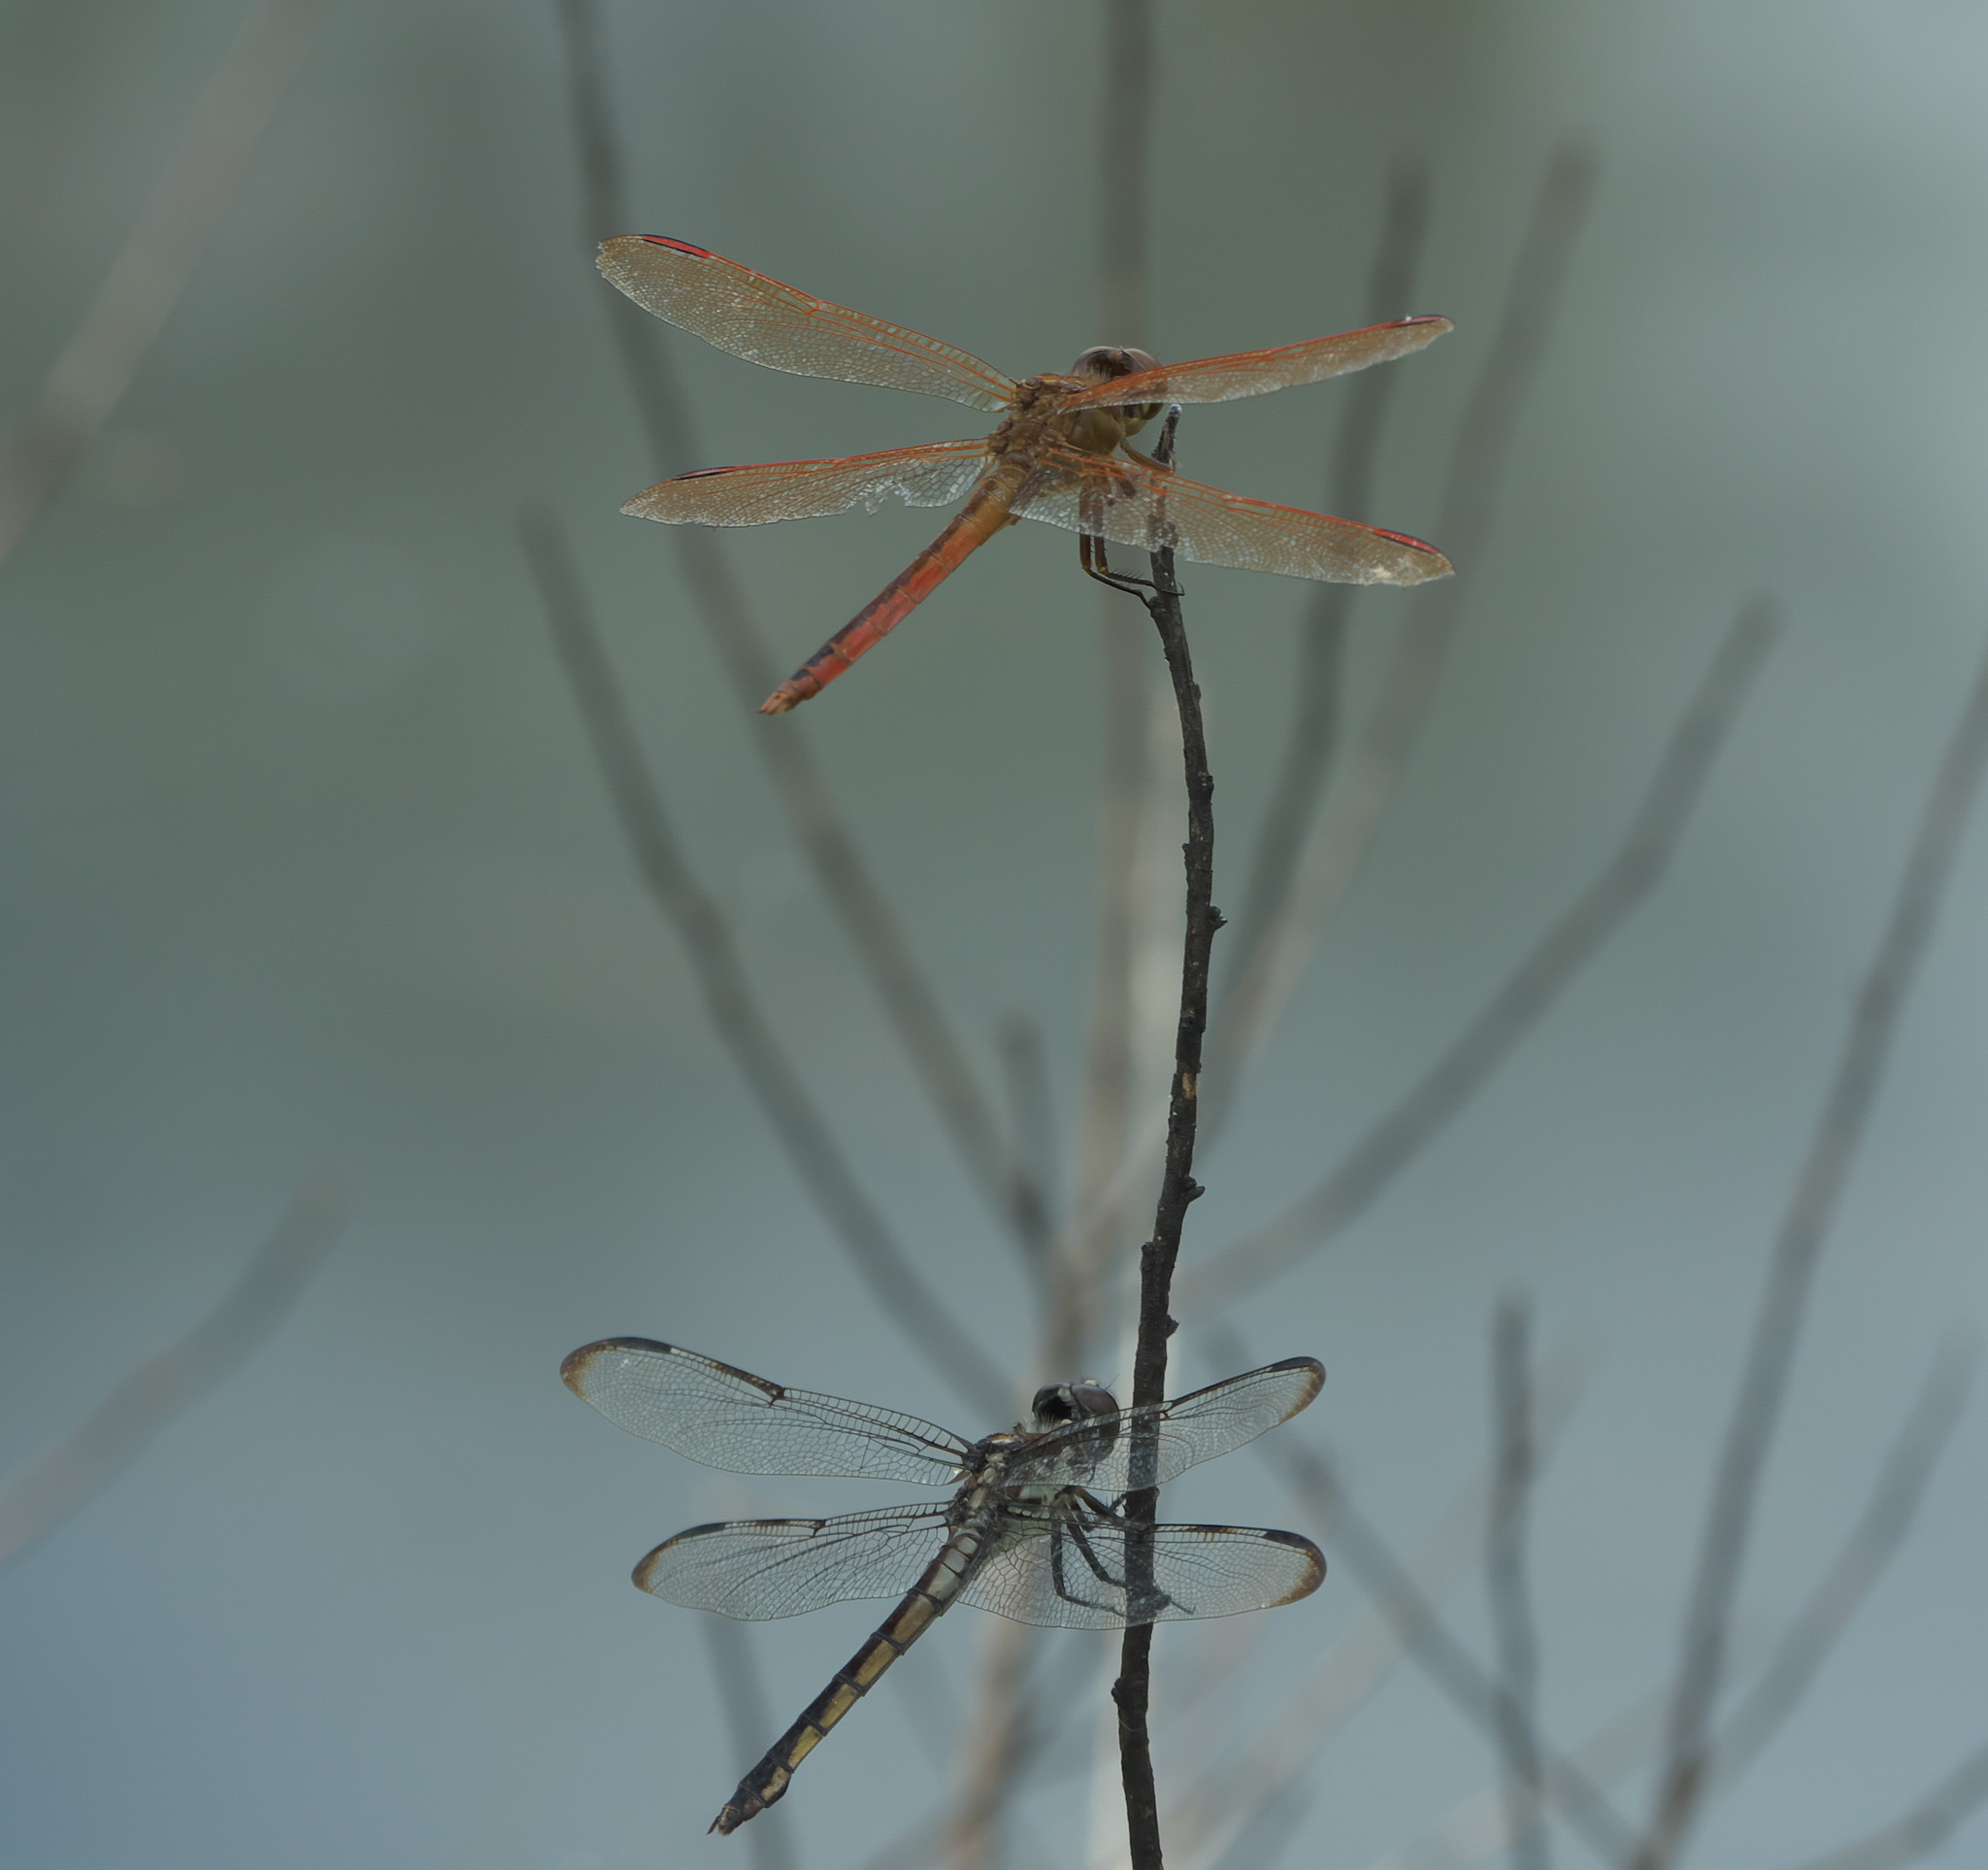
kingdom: Animalia
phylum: Arthropoda
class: Insecta
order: Odonata
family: Libellulidae
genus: Libellula
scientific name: Libellula auripennis
